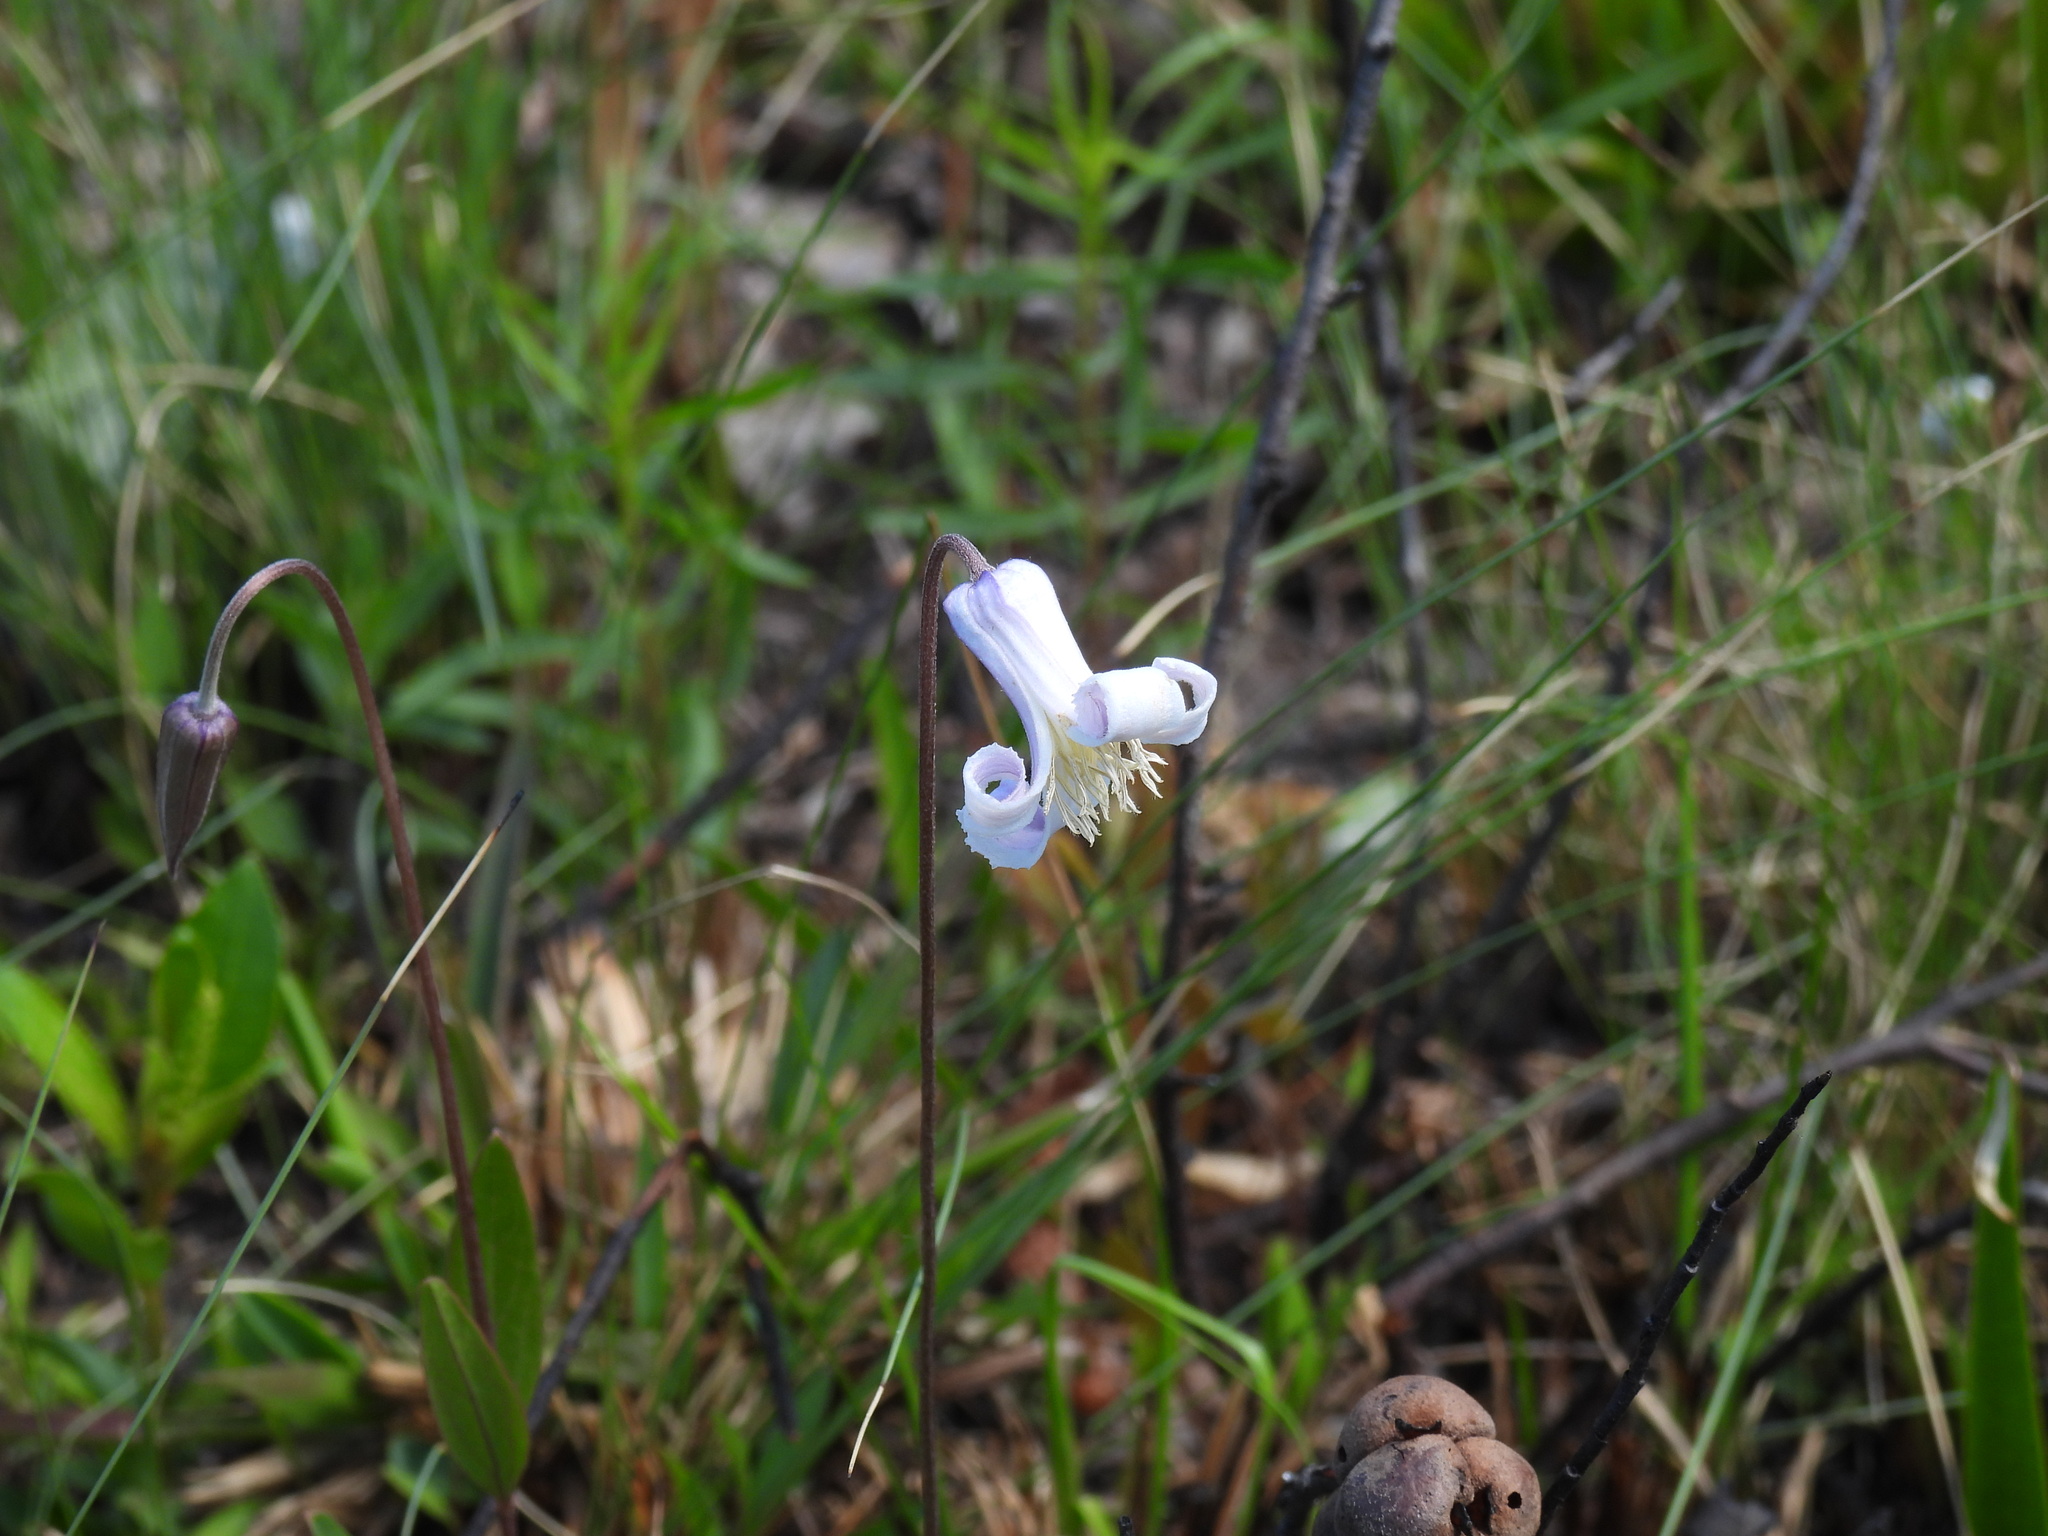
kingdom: Plantae
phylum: Tracheophyta
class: Magnoliopsida
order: Ranunculales
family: Ranunculaceae
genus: Clematis
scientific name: Clematis baldwinii
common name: Pine-hyacinth
